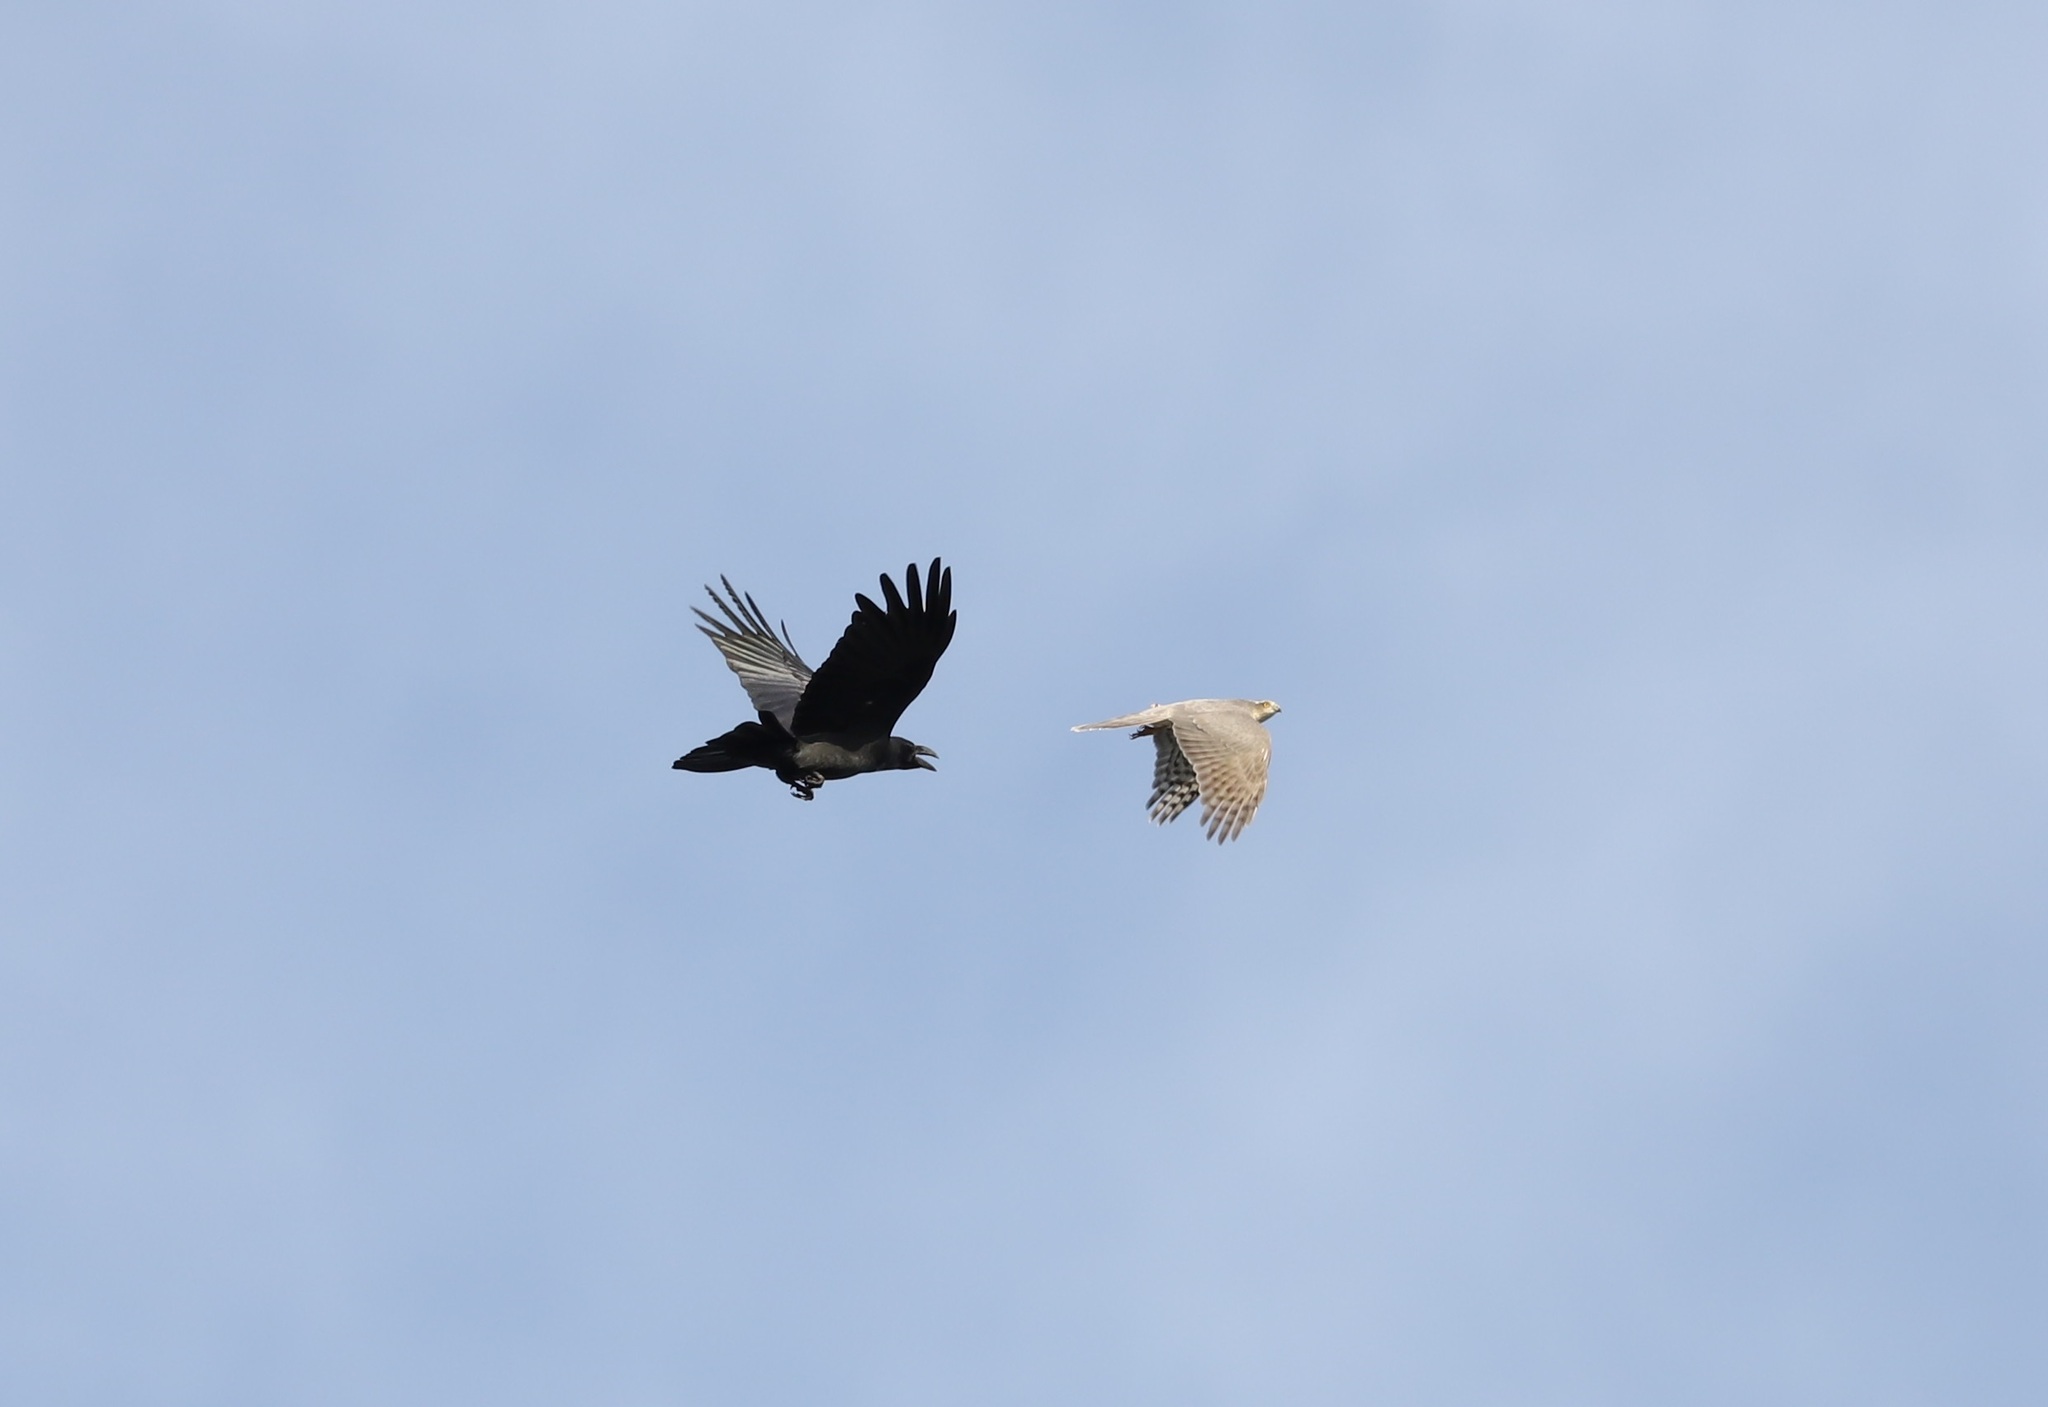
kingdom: Animalia
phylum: Chordata
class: Aves
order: Accipitriformes
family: Accipitridae
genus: Accipiter
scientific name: Accipiter nisus
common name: Eurasian sparrowhawk
